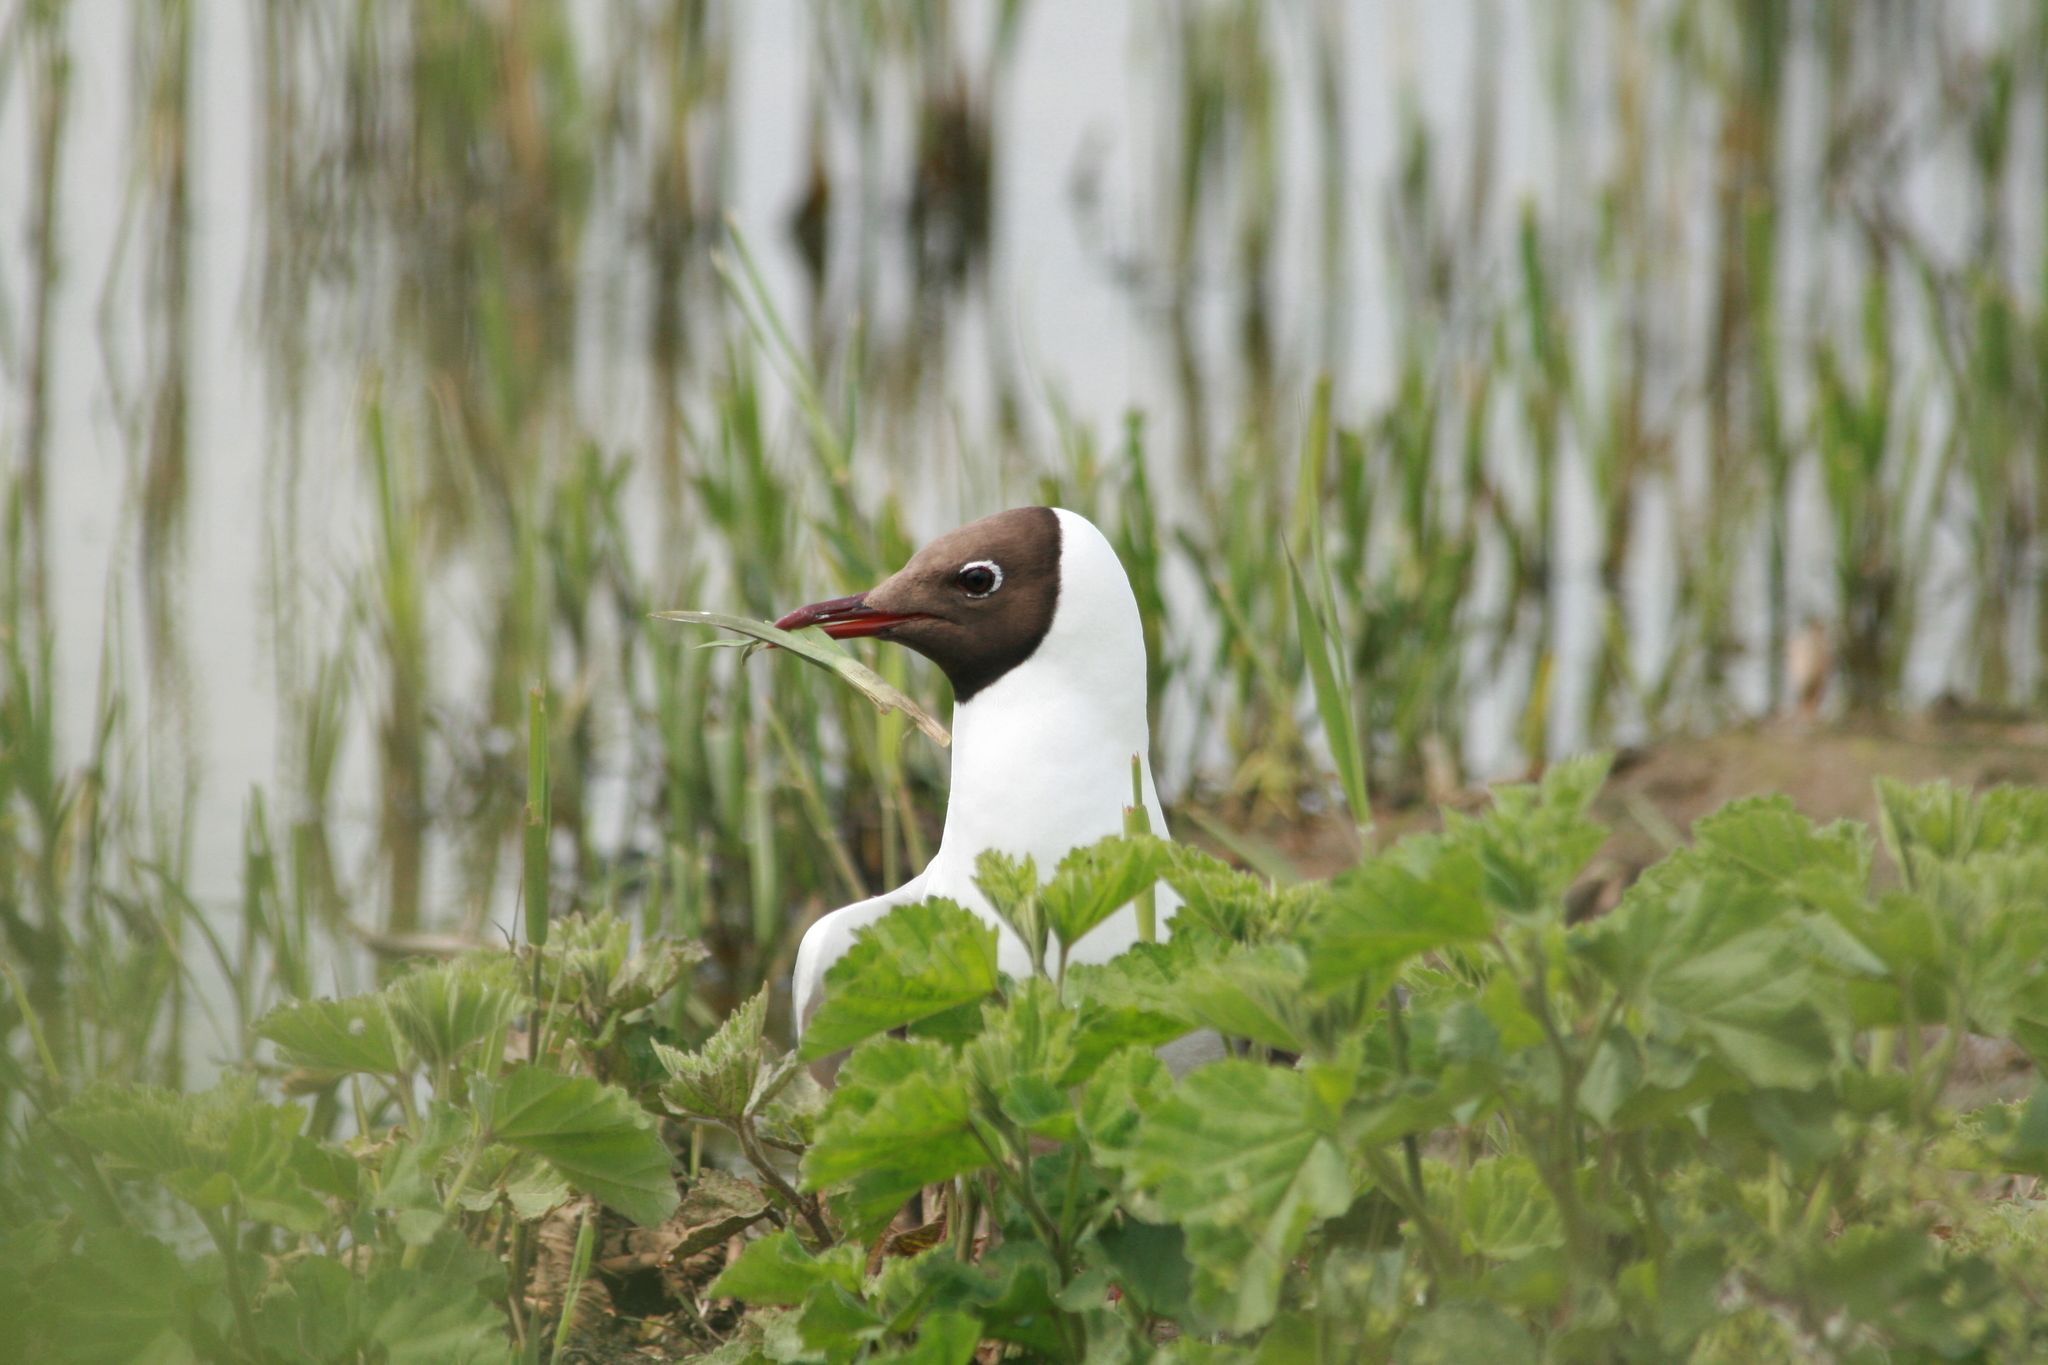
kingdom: Animalia
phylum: Chordata
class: Aves
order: Charadriiformes
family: Laridae
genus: Chroicocephalus
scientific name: Chroicocephalus ridibundus
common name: Black-headed gull
